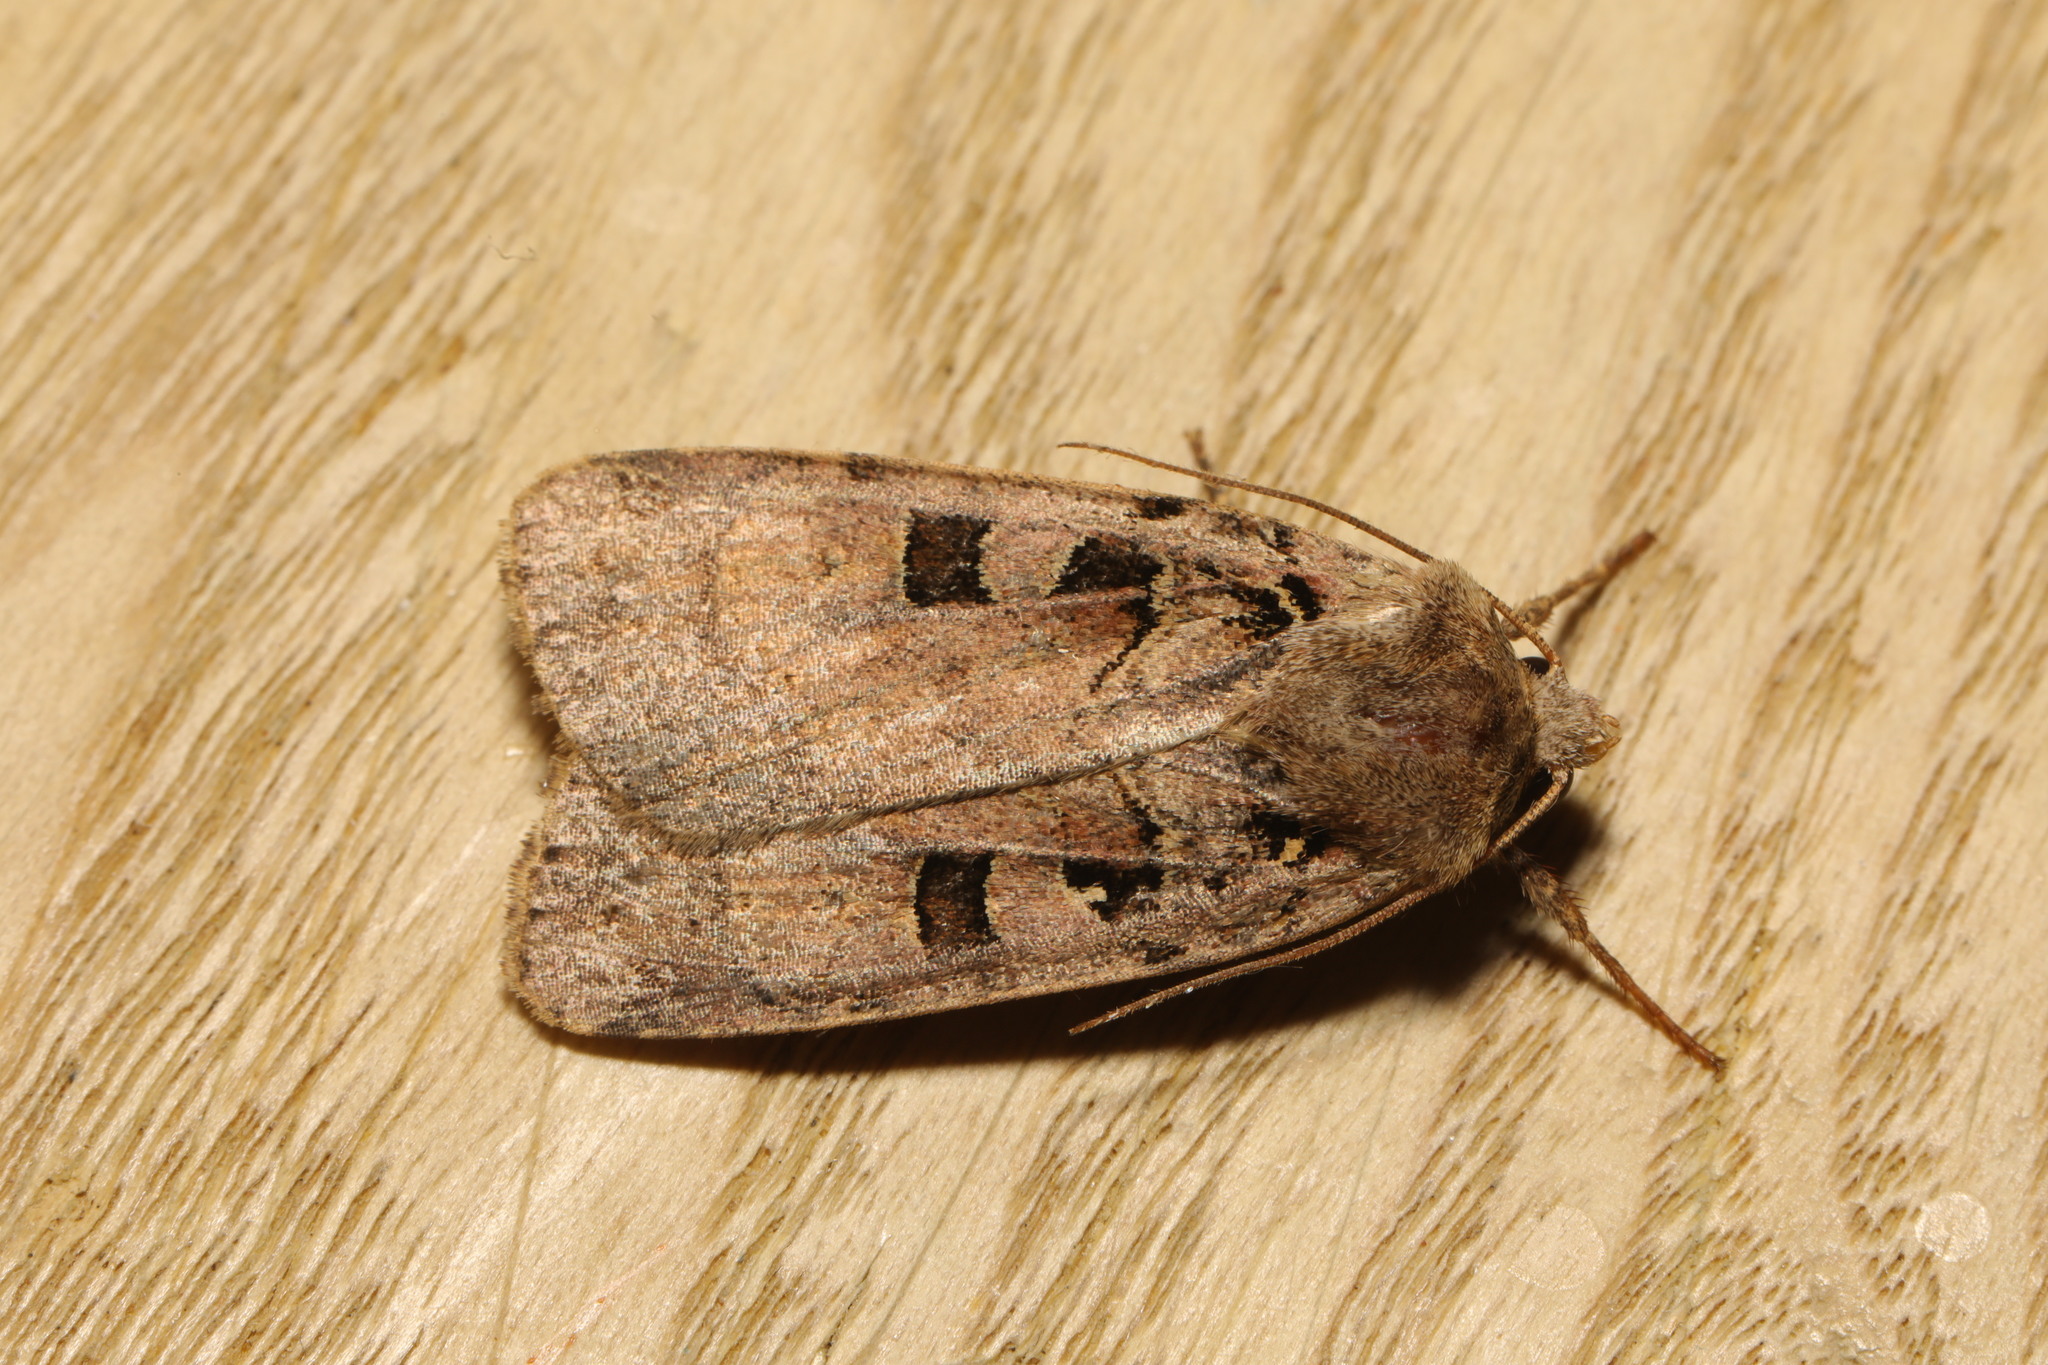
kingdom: Animalia
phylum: Arthropoda
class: Insecta
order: Lepidoptera
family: Noctuidae
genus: Xestia
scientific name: Xestia triangulum
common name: Double square-spot
